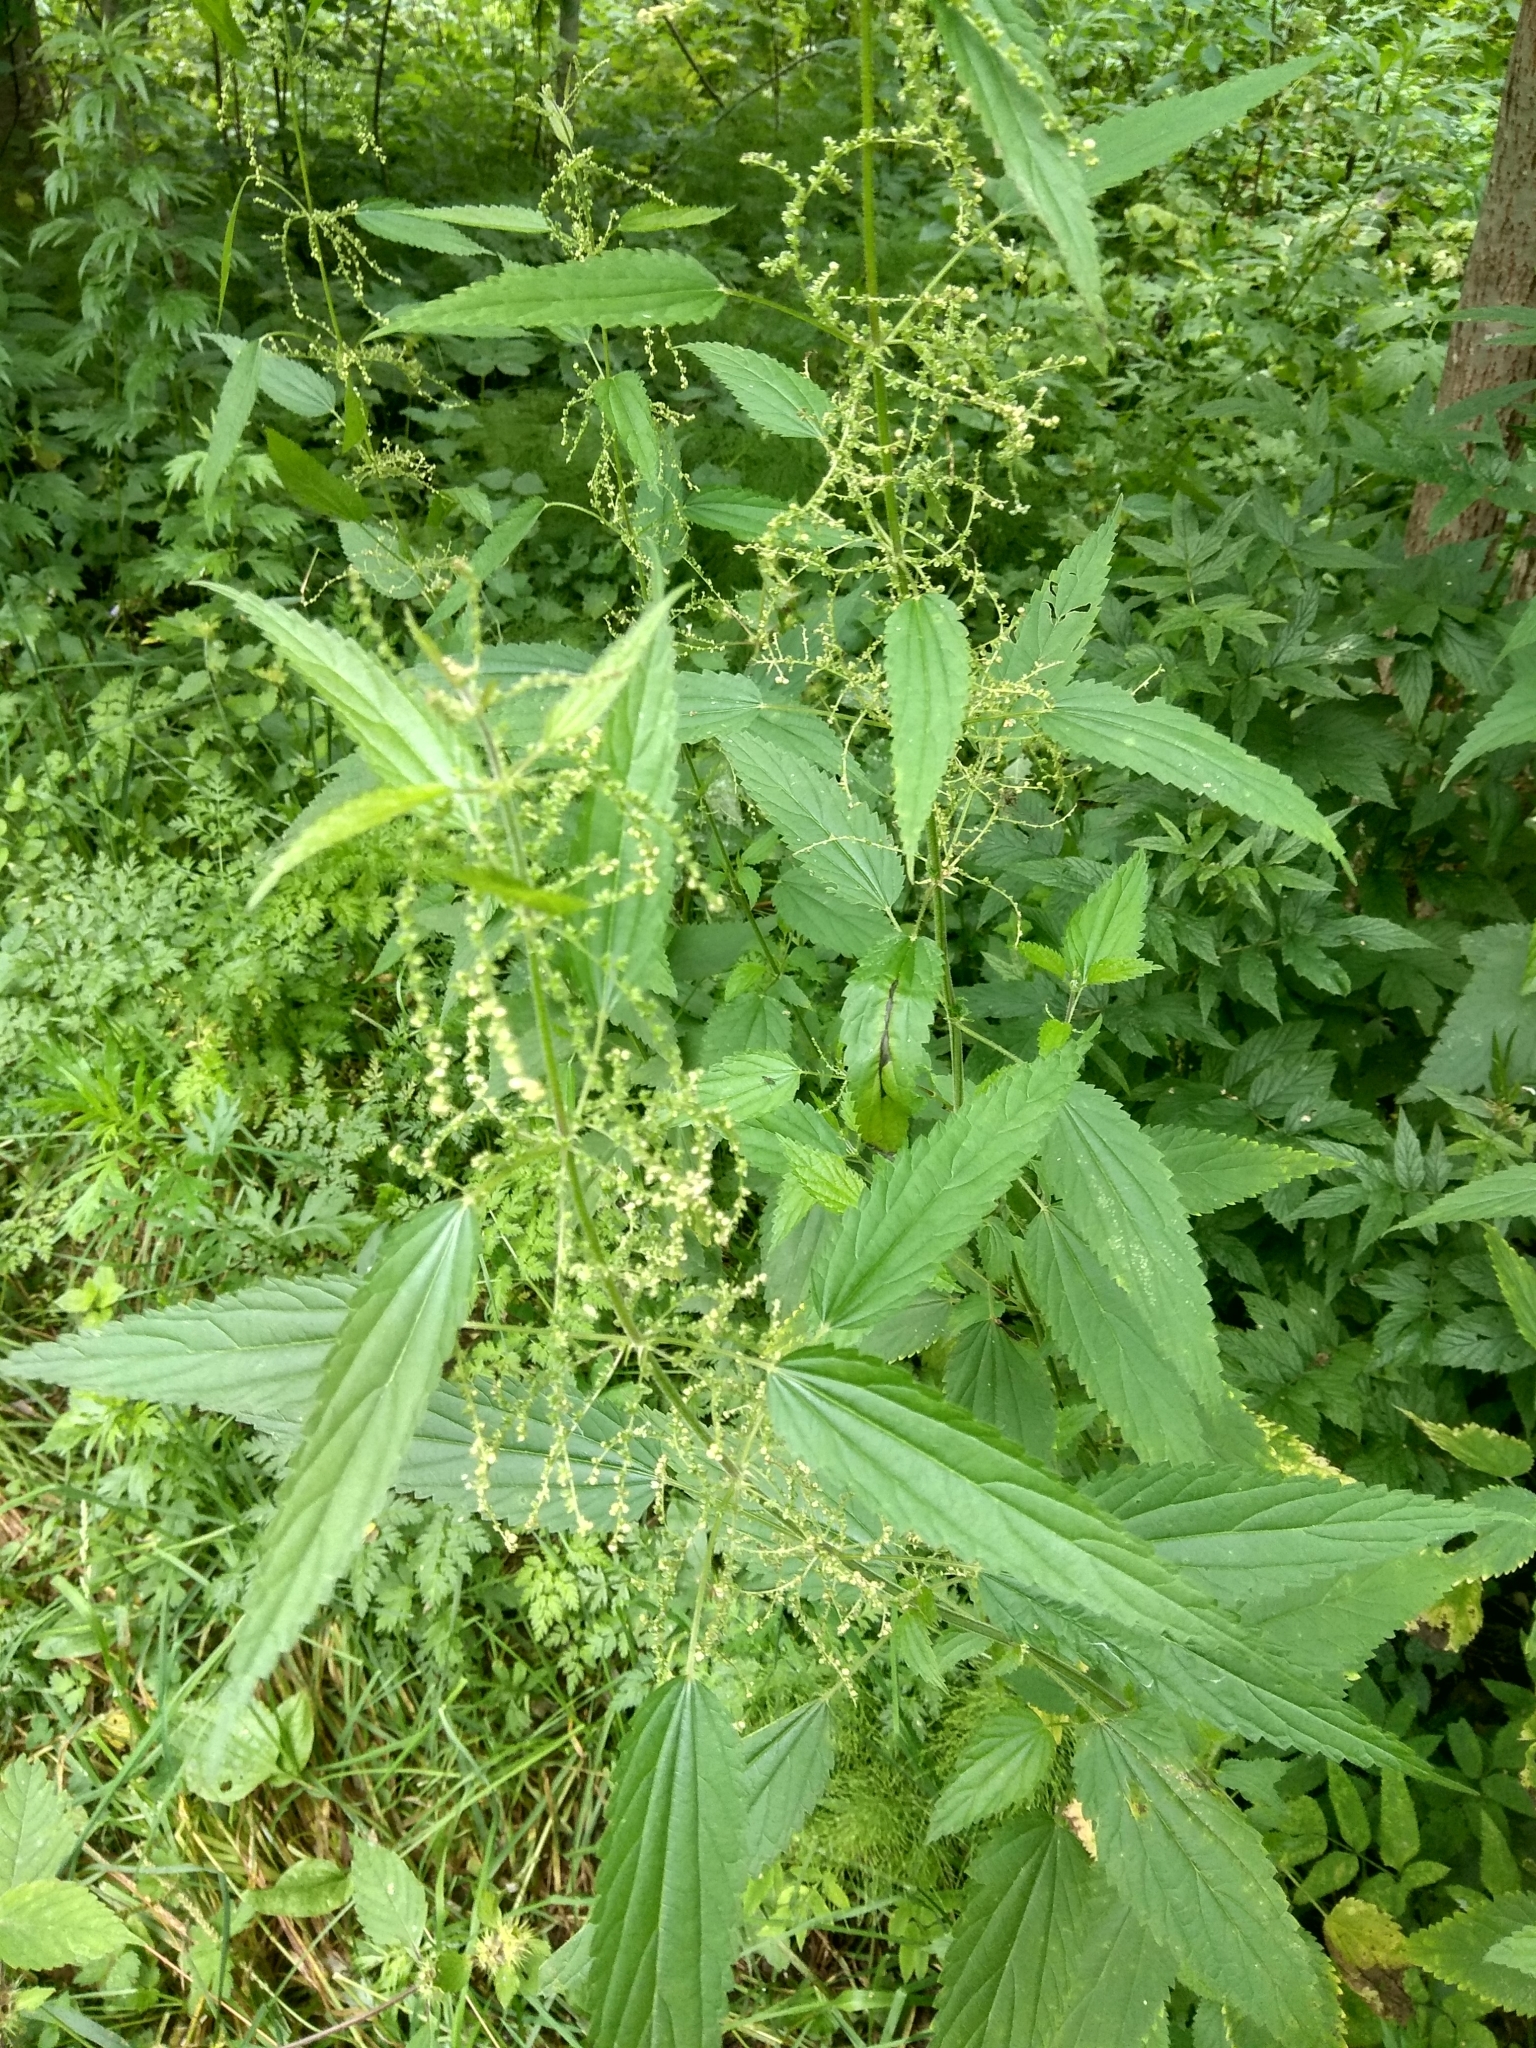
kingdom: Plantae
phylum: Tracheophyta
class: Magnoliopsida
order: Rosales
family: Urticaceae
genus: Urtica
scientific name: Urtica dioica
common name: Common nettle
